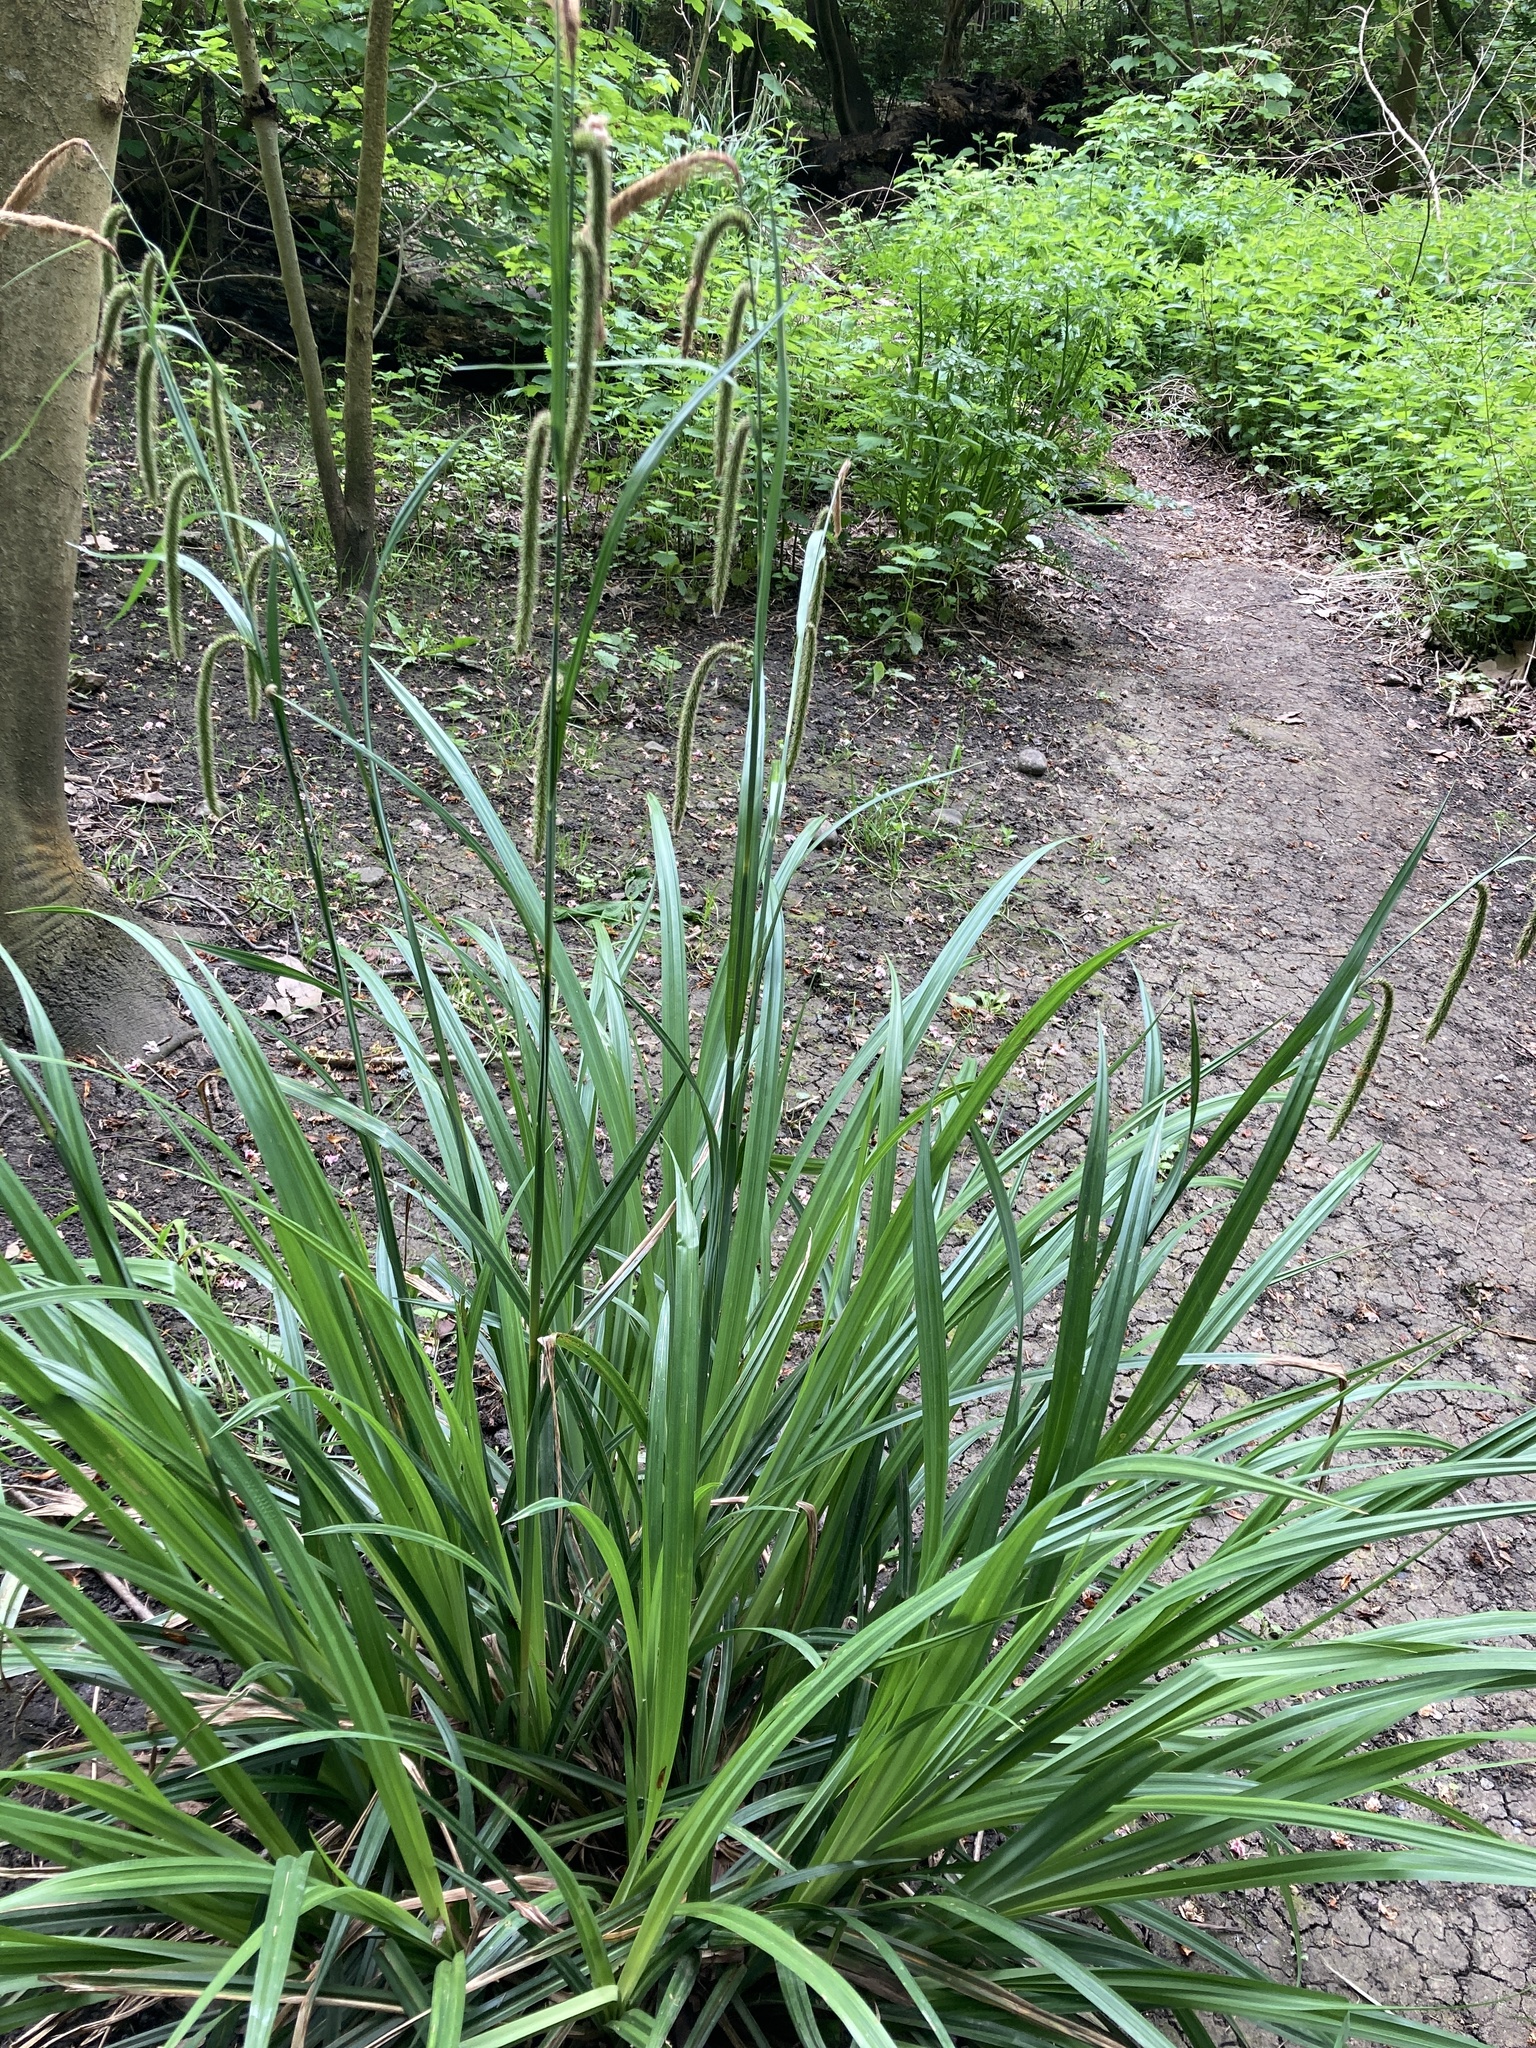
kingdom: Plantae
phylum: Tracheophyta
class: Liliopsida
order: Poales
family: Cyperaceae
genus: Carex
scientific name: Carex pendula
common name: Pendulous sedge
